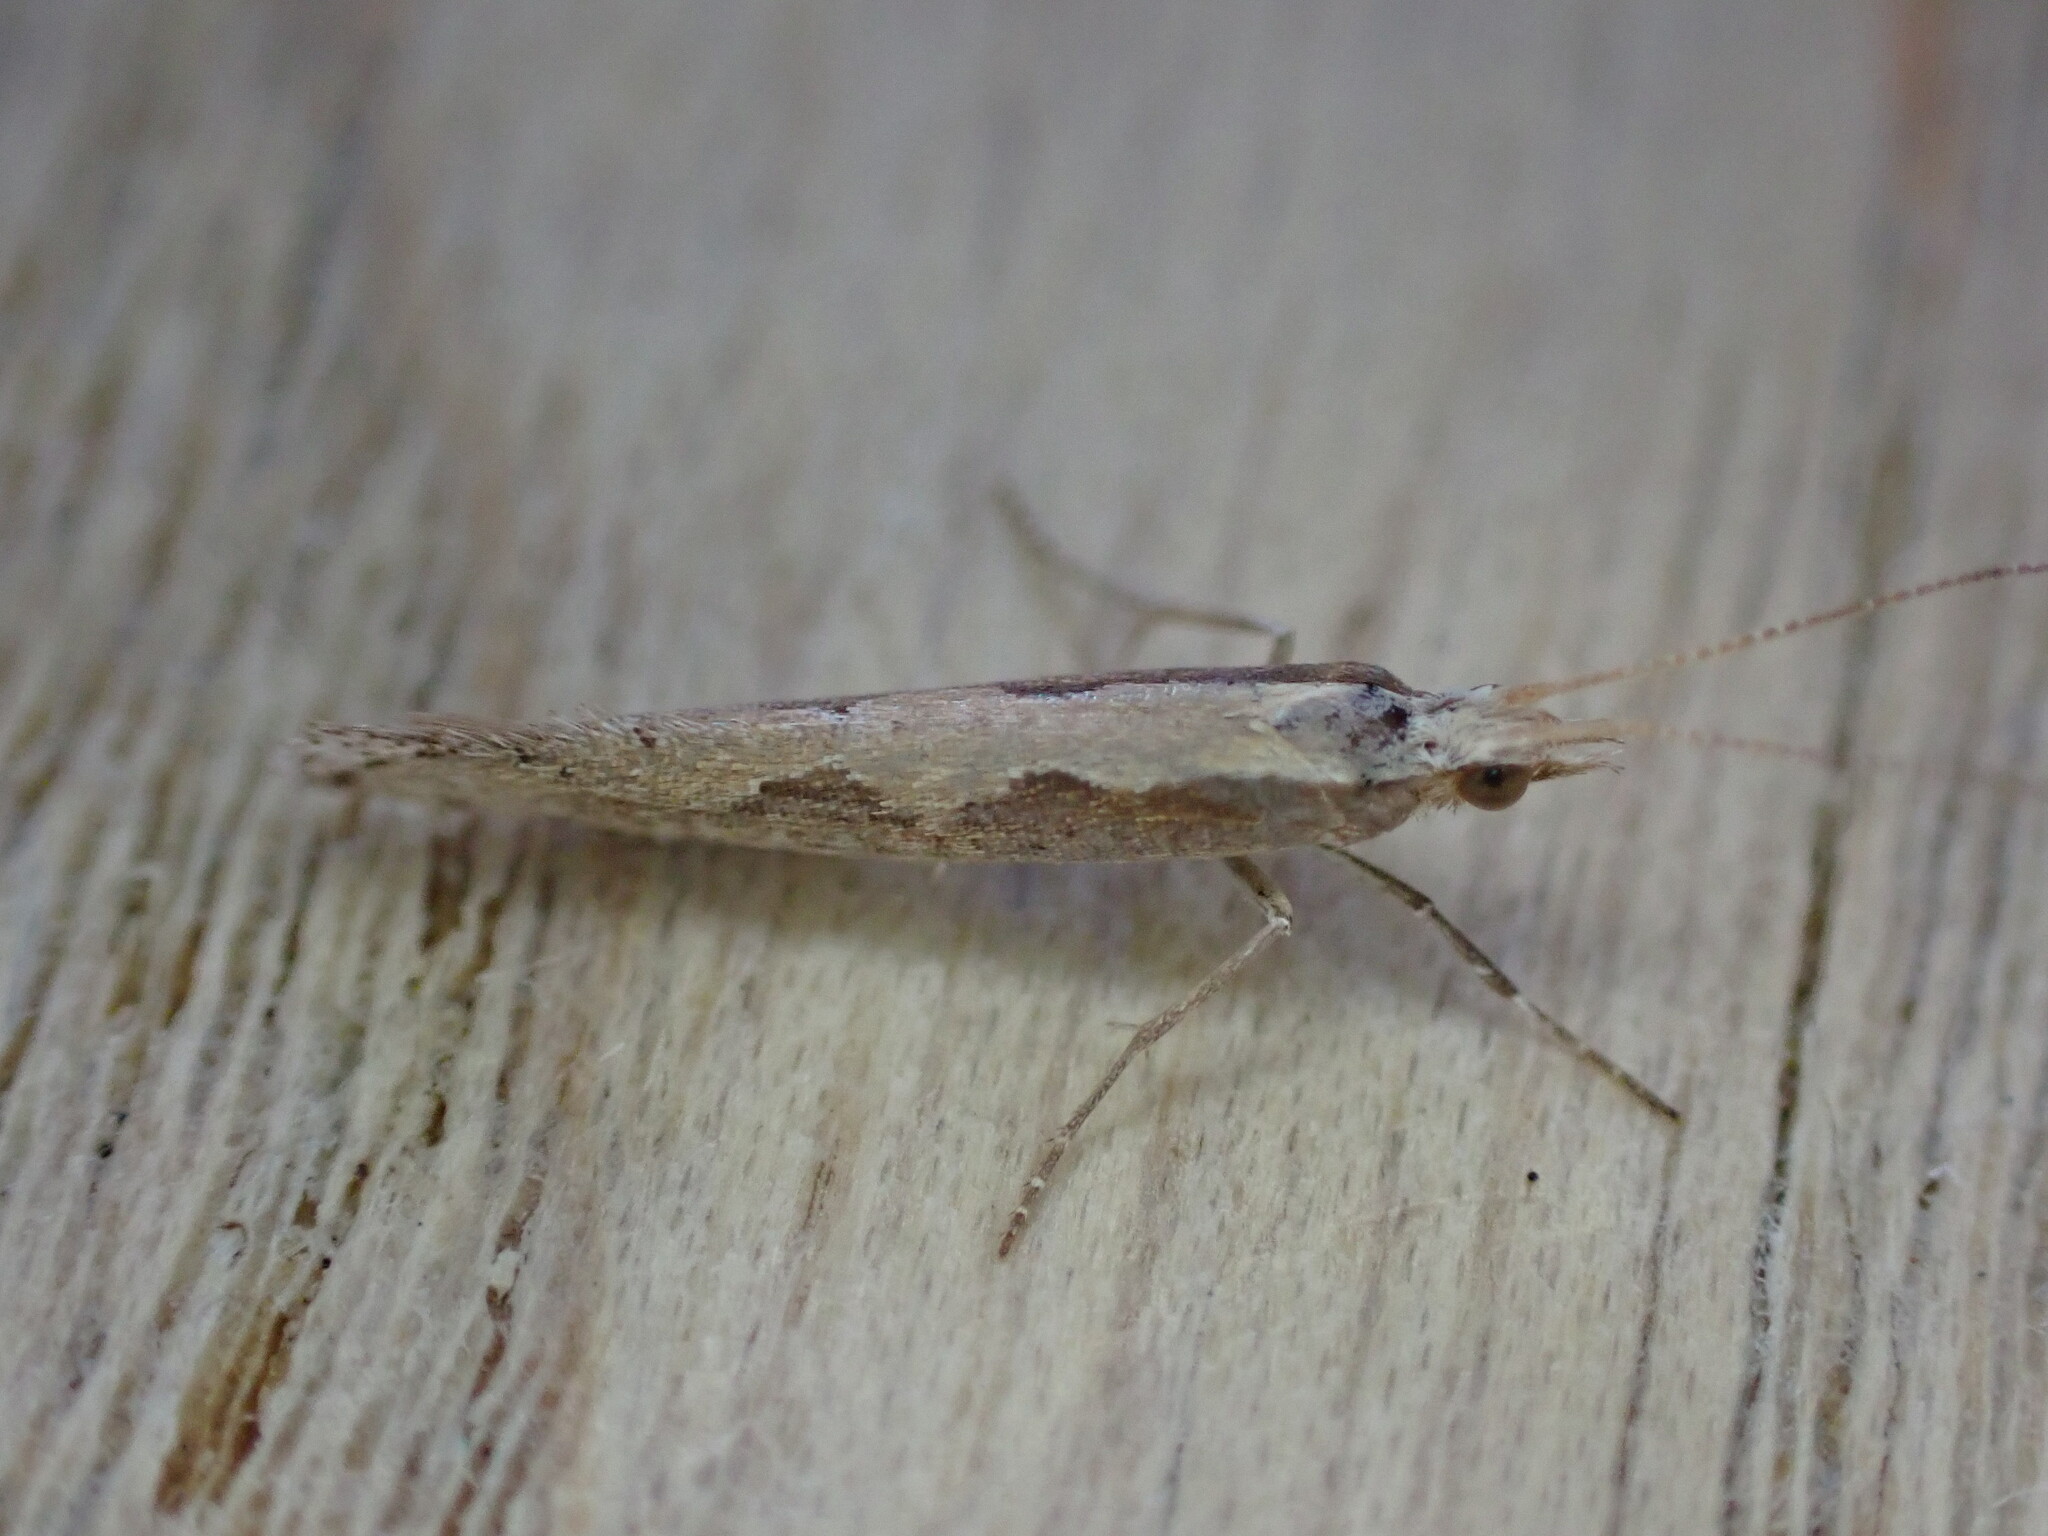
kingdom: Animalia
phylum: Arthropoda
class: Insecta
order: Lepidoptera
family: Plutellidae
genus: Plutella
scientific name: Plutella xylostella
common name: Diamond-back moth
